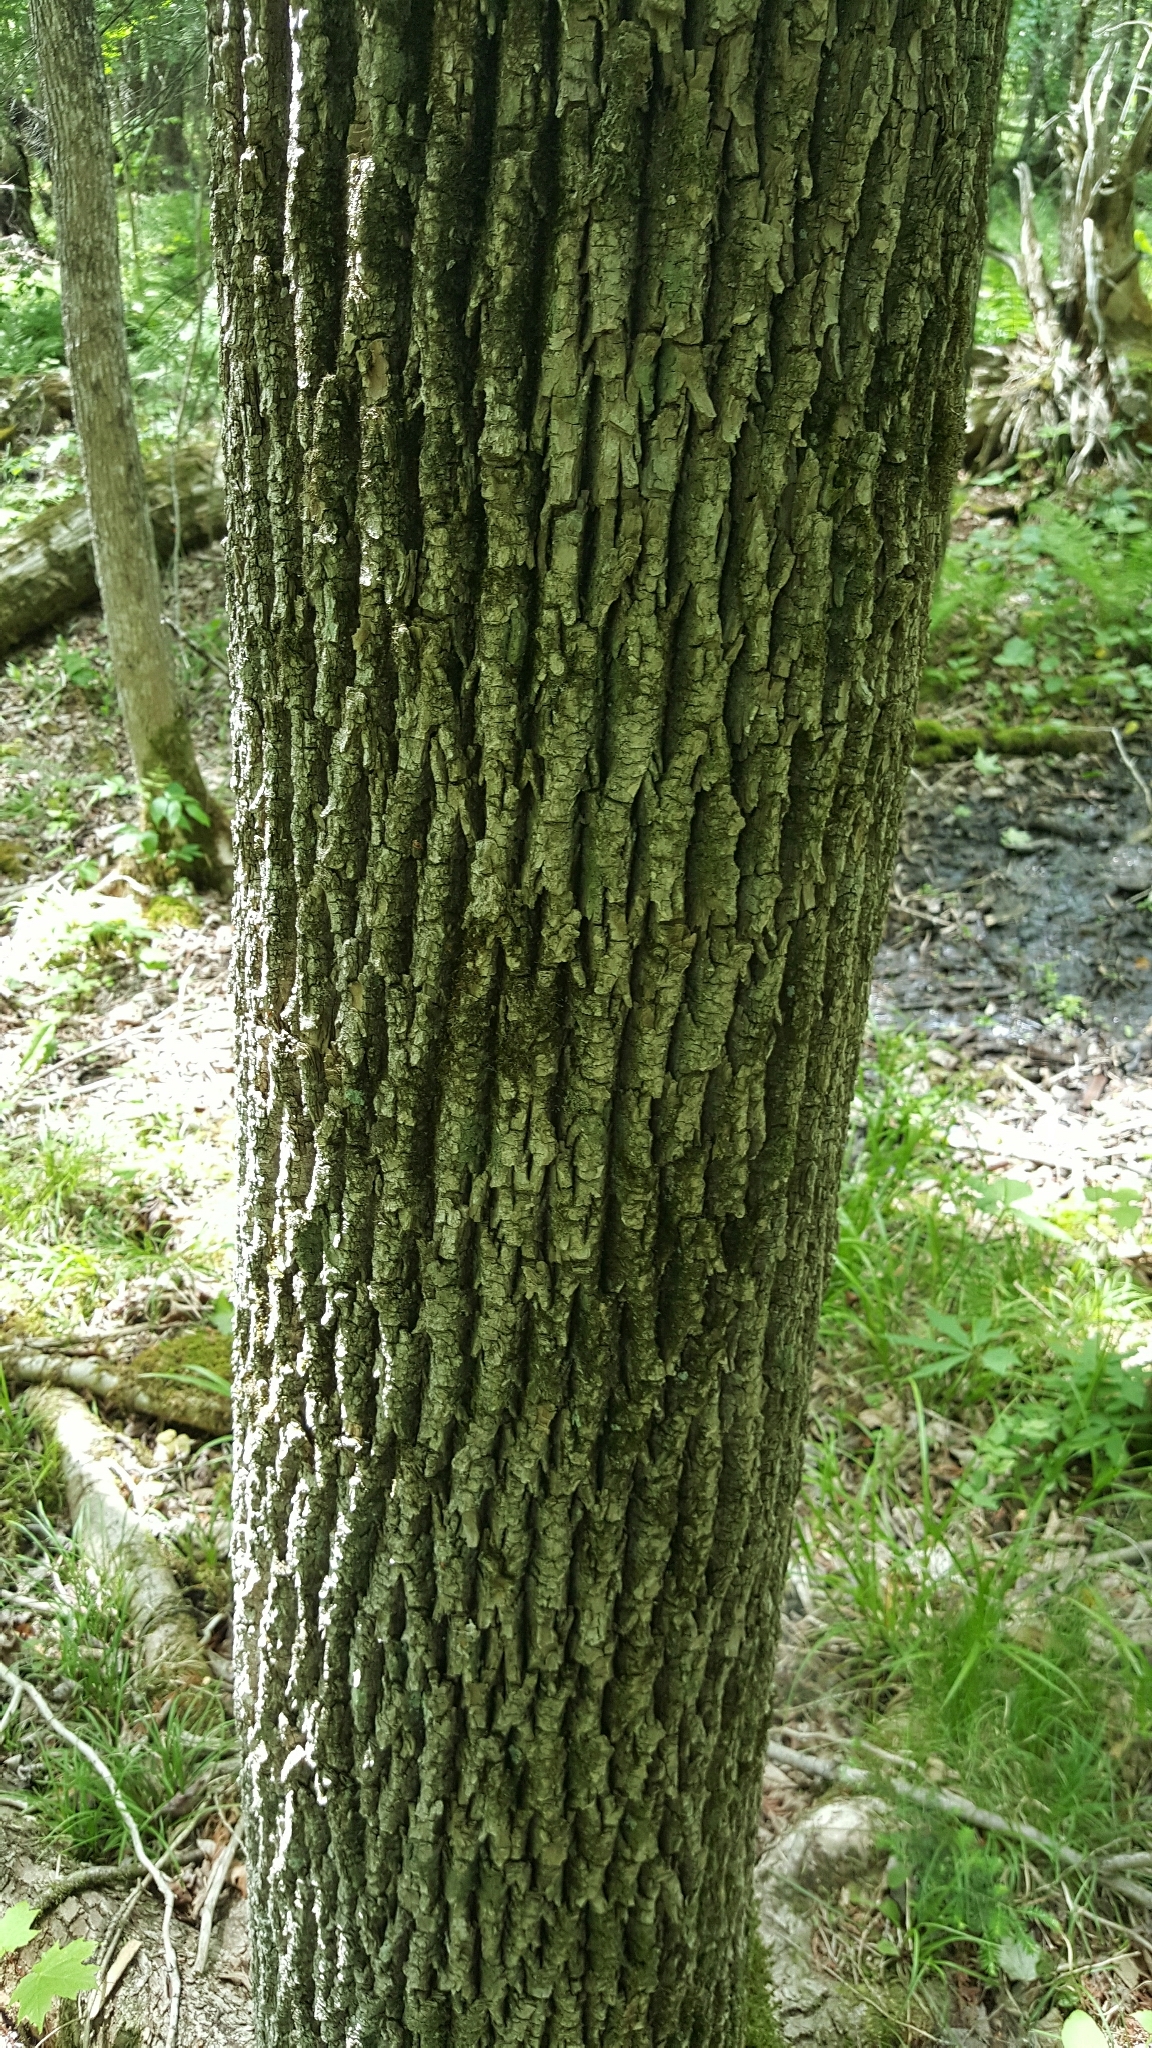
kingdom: Plantae
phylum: Tracheophyta
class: Magnoliopsida
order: Lamiales
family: Oleaceae
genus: Fraxinus
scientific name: Fraxinus americana
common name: White ash
